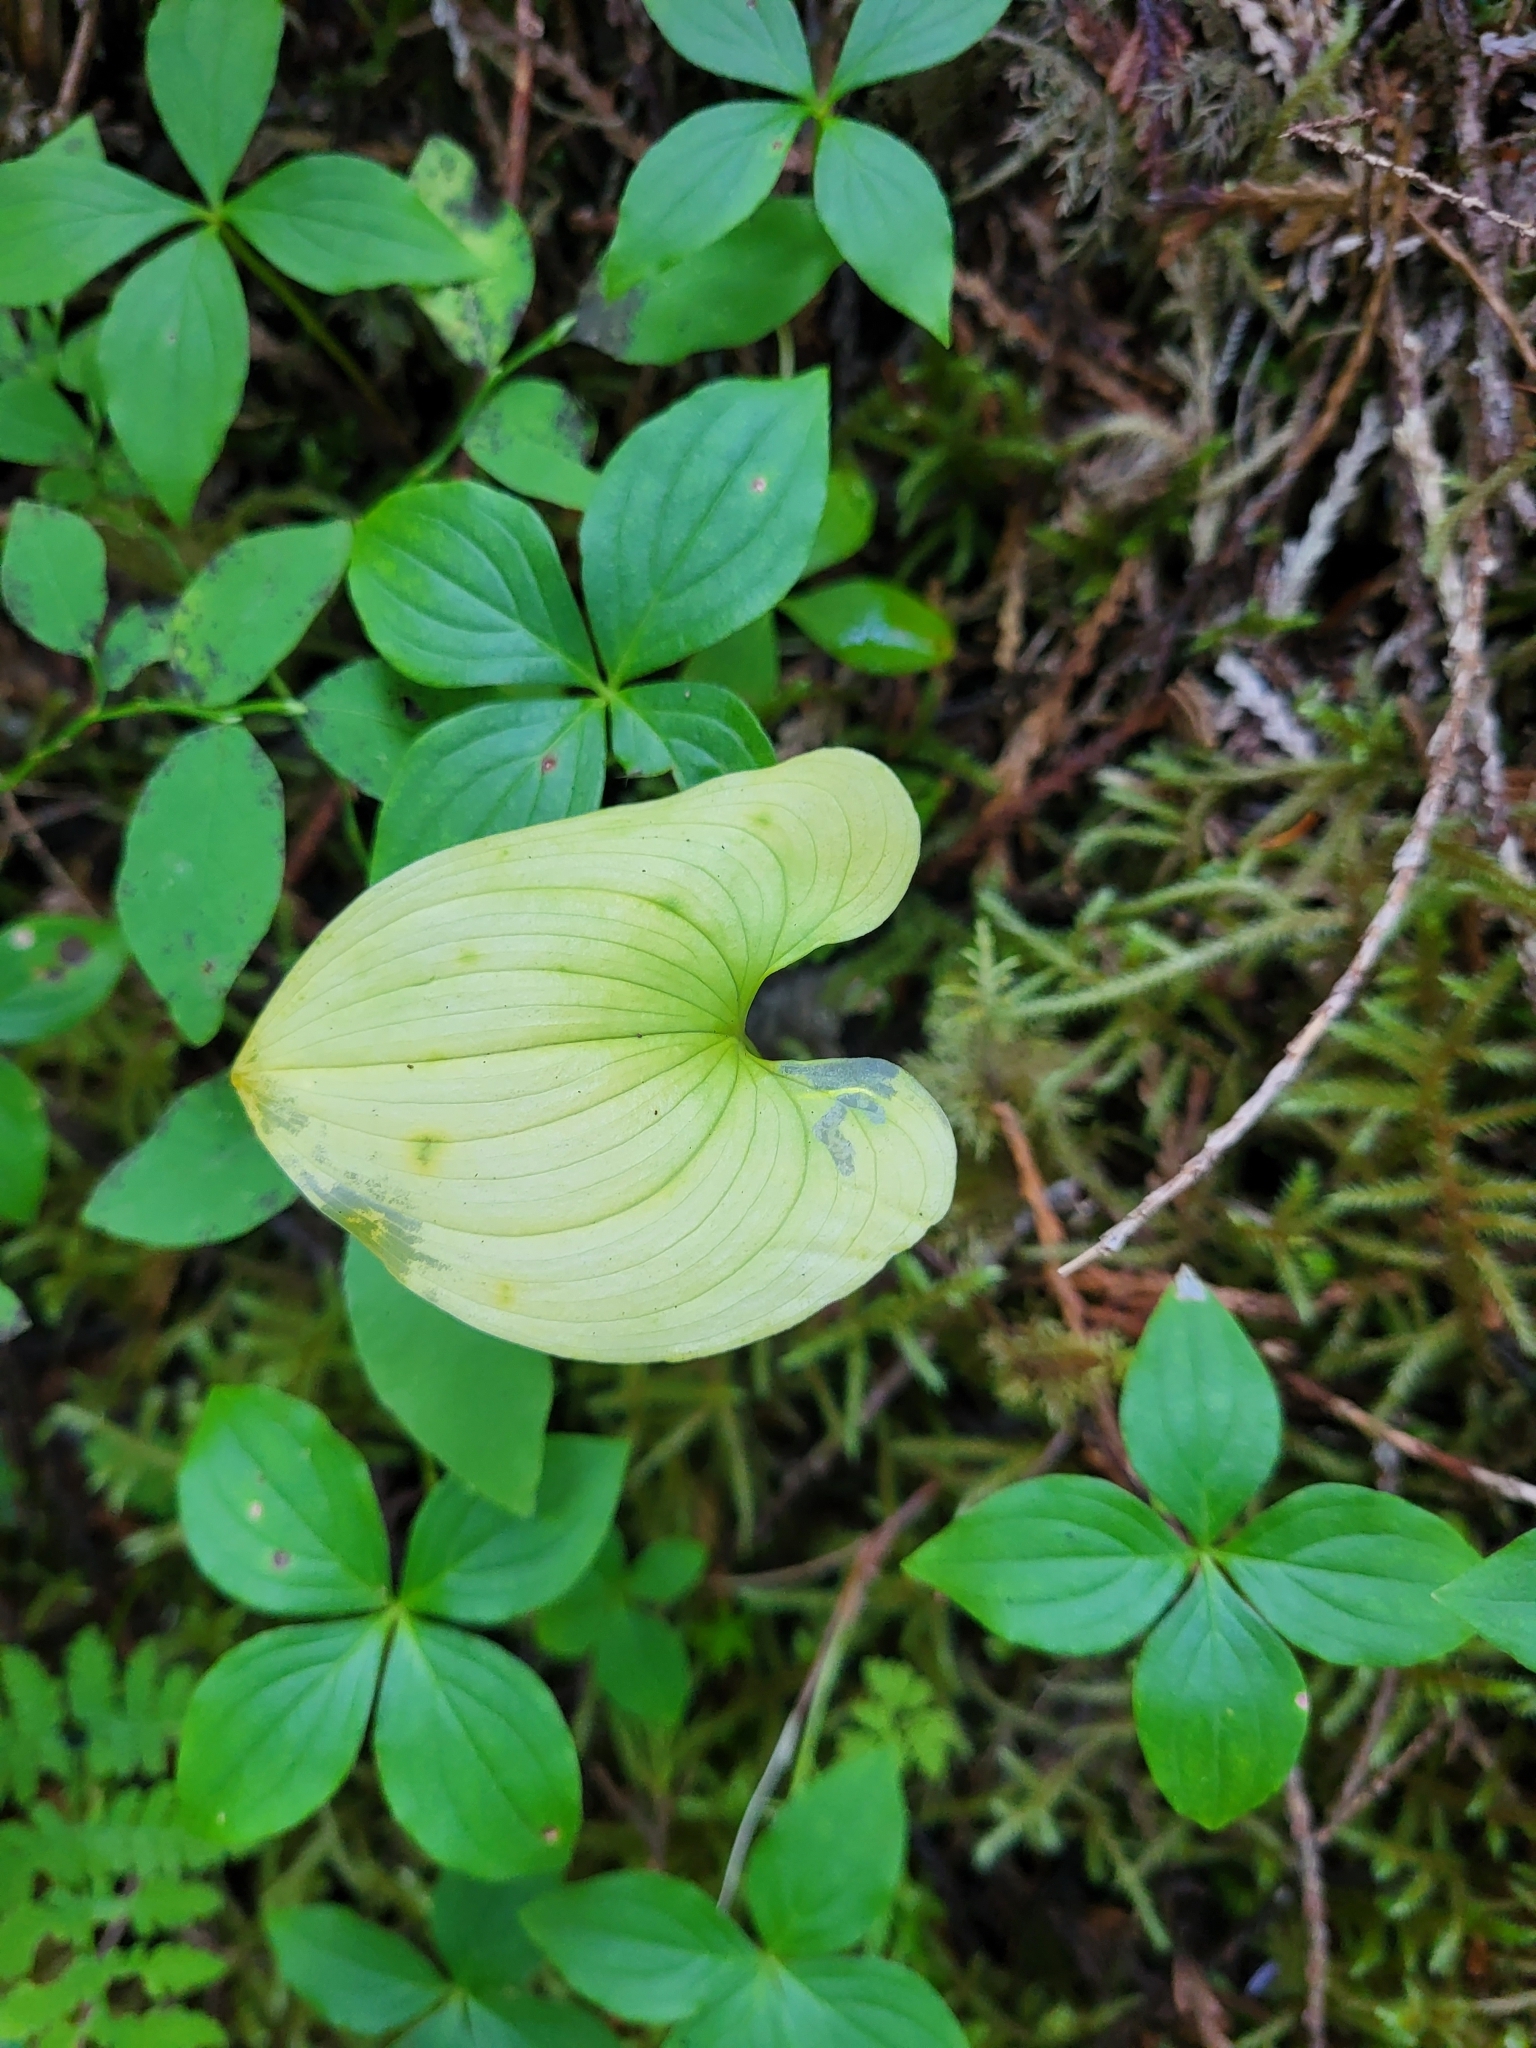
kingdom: Plantae
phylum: Tracheophyta
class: Liliopsida
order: Asparagales
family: Asparagaceae
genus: Maianthemum
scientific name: Maianthemum dilatatum
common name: False lily-of-the-valley
